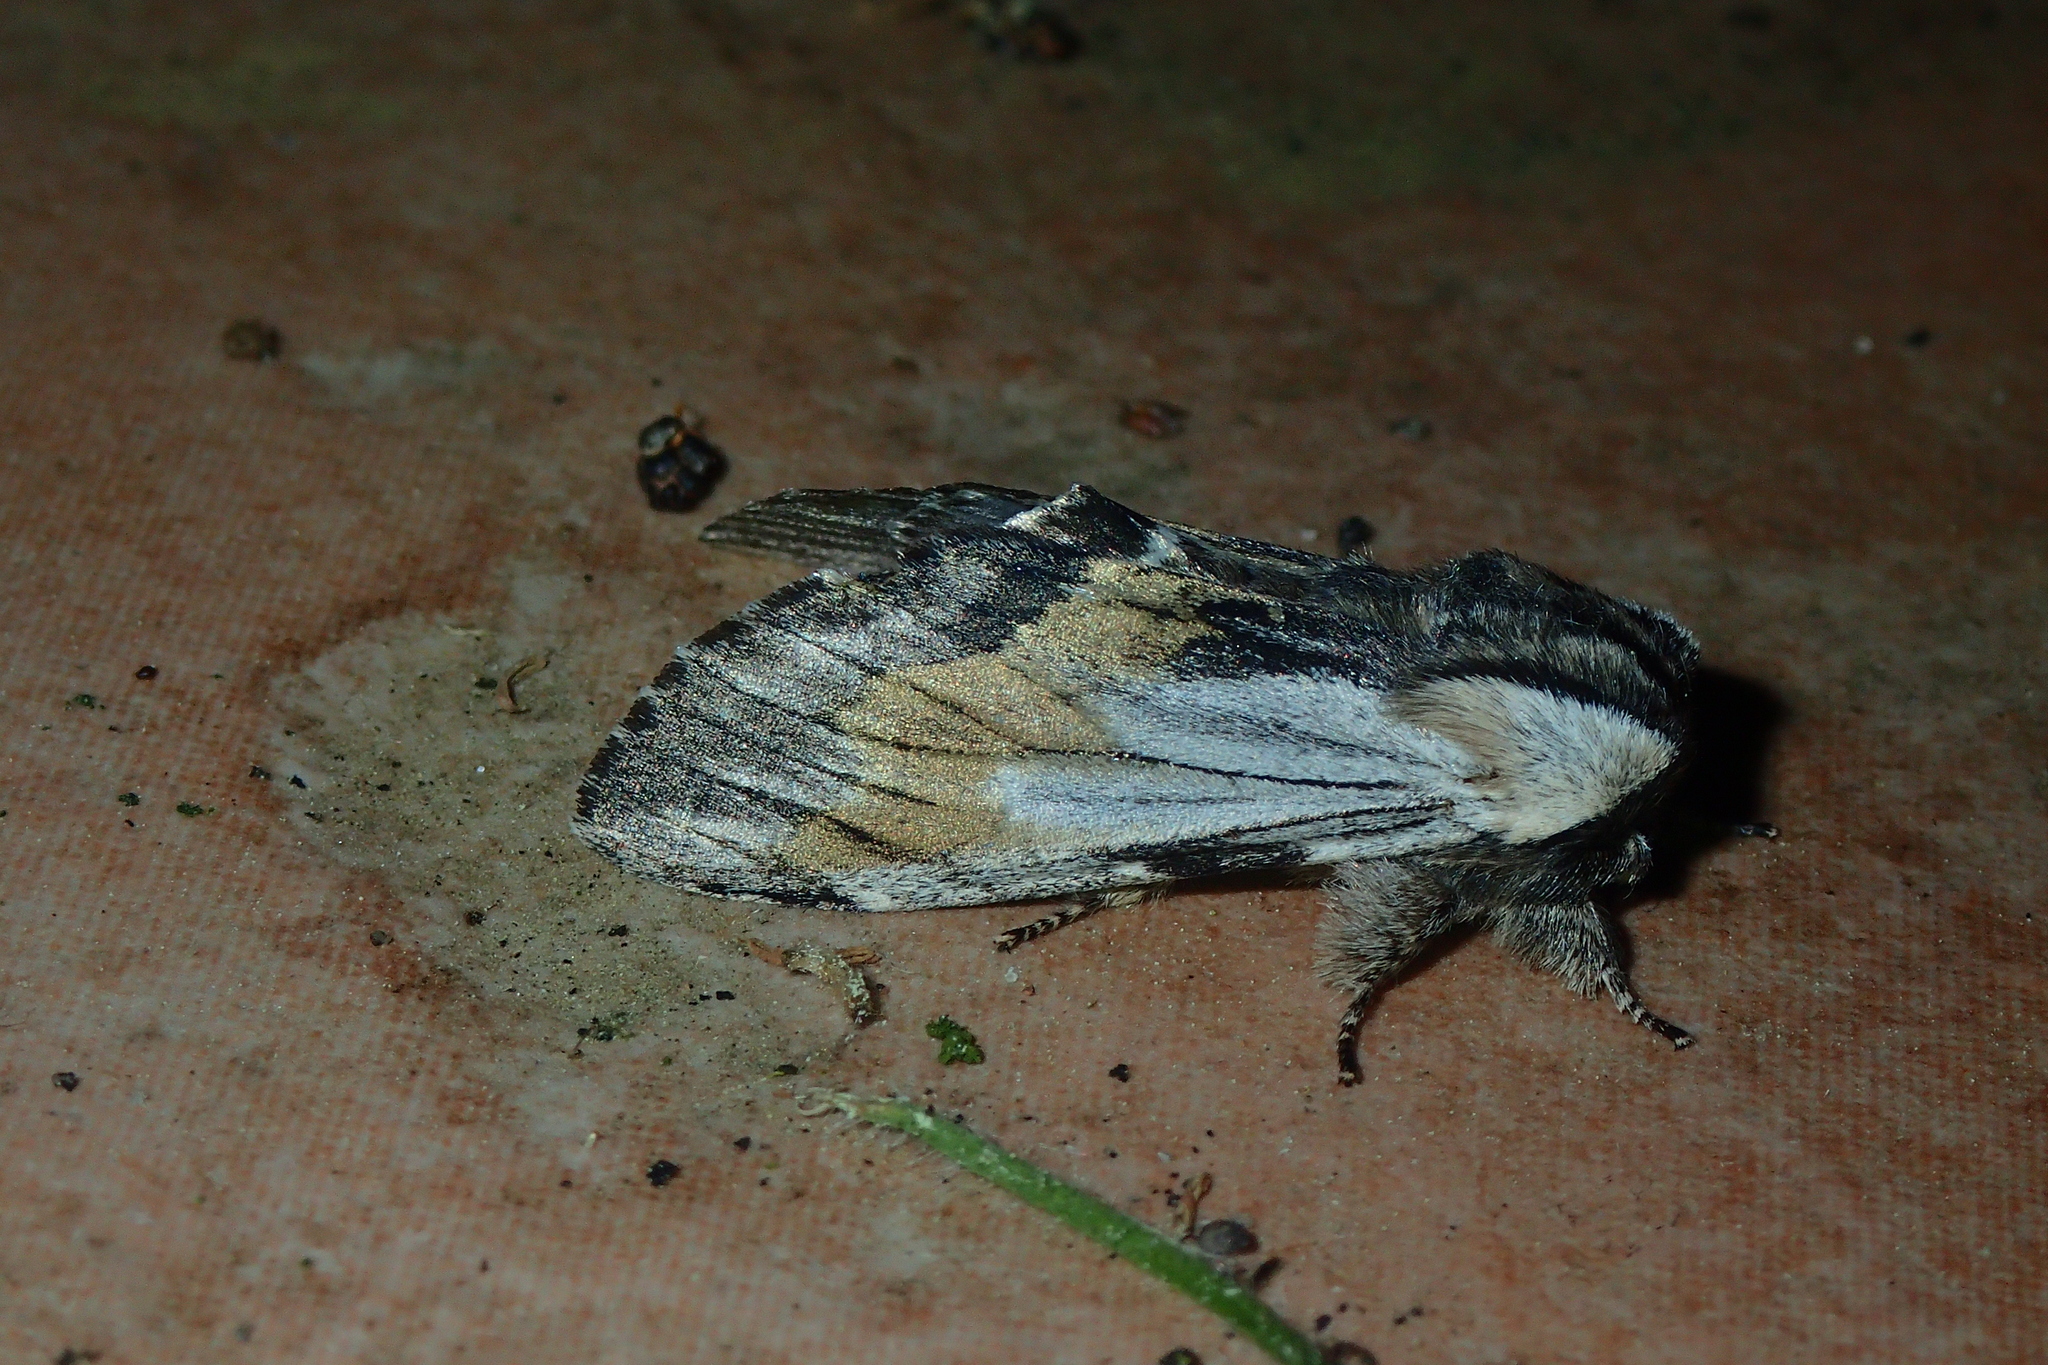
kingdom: Animalia
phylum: Arthropoda
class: Insecta
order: Lepidoptera
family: Notodontidae
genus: Harpyia
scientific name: Harpyia milhauseri
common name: Tawny prominent
